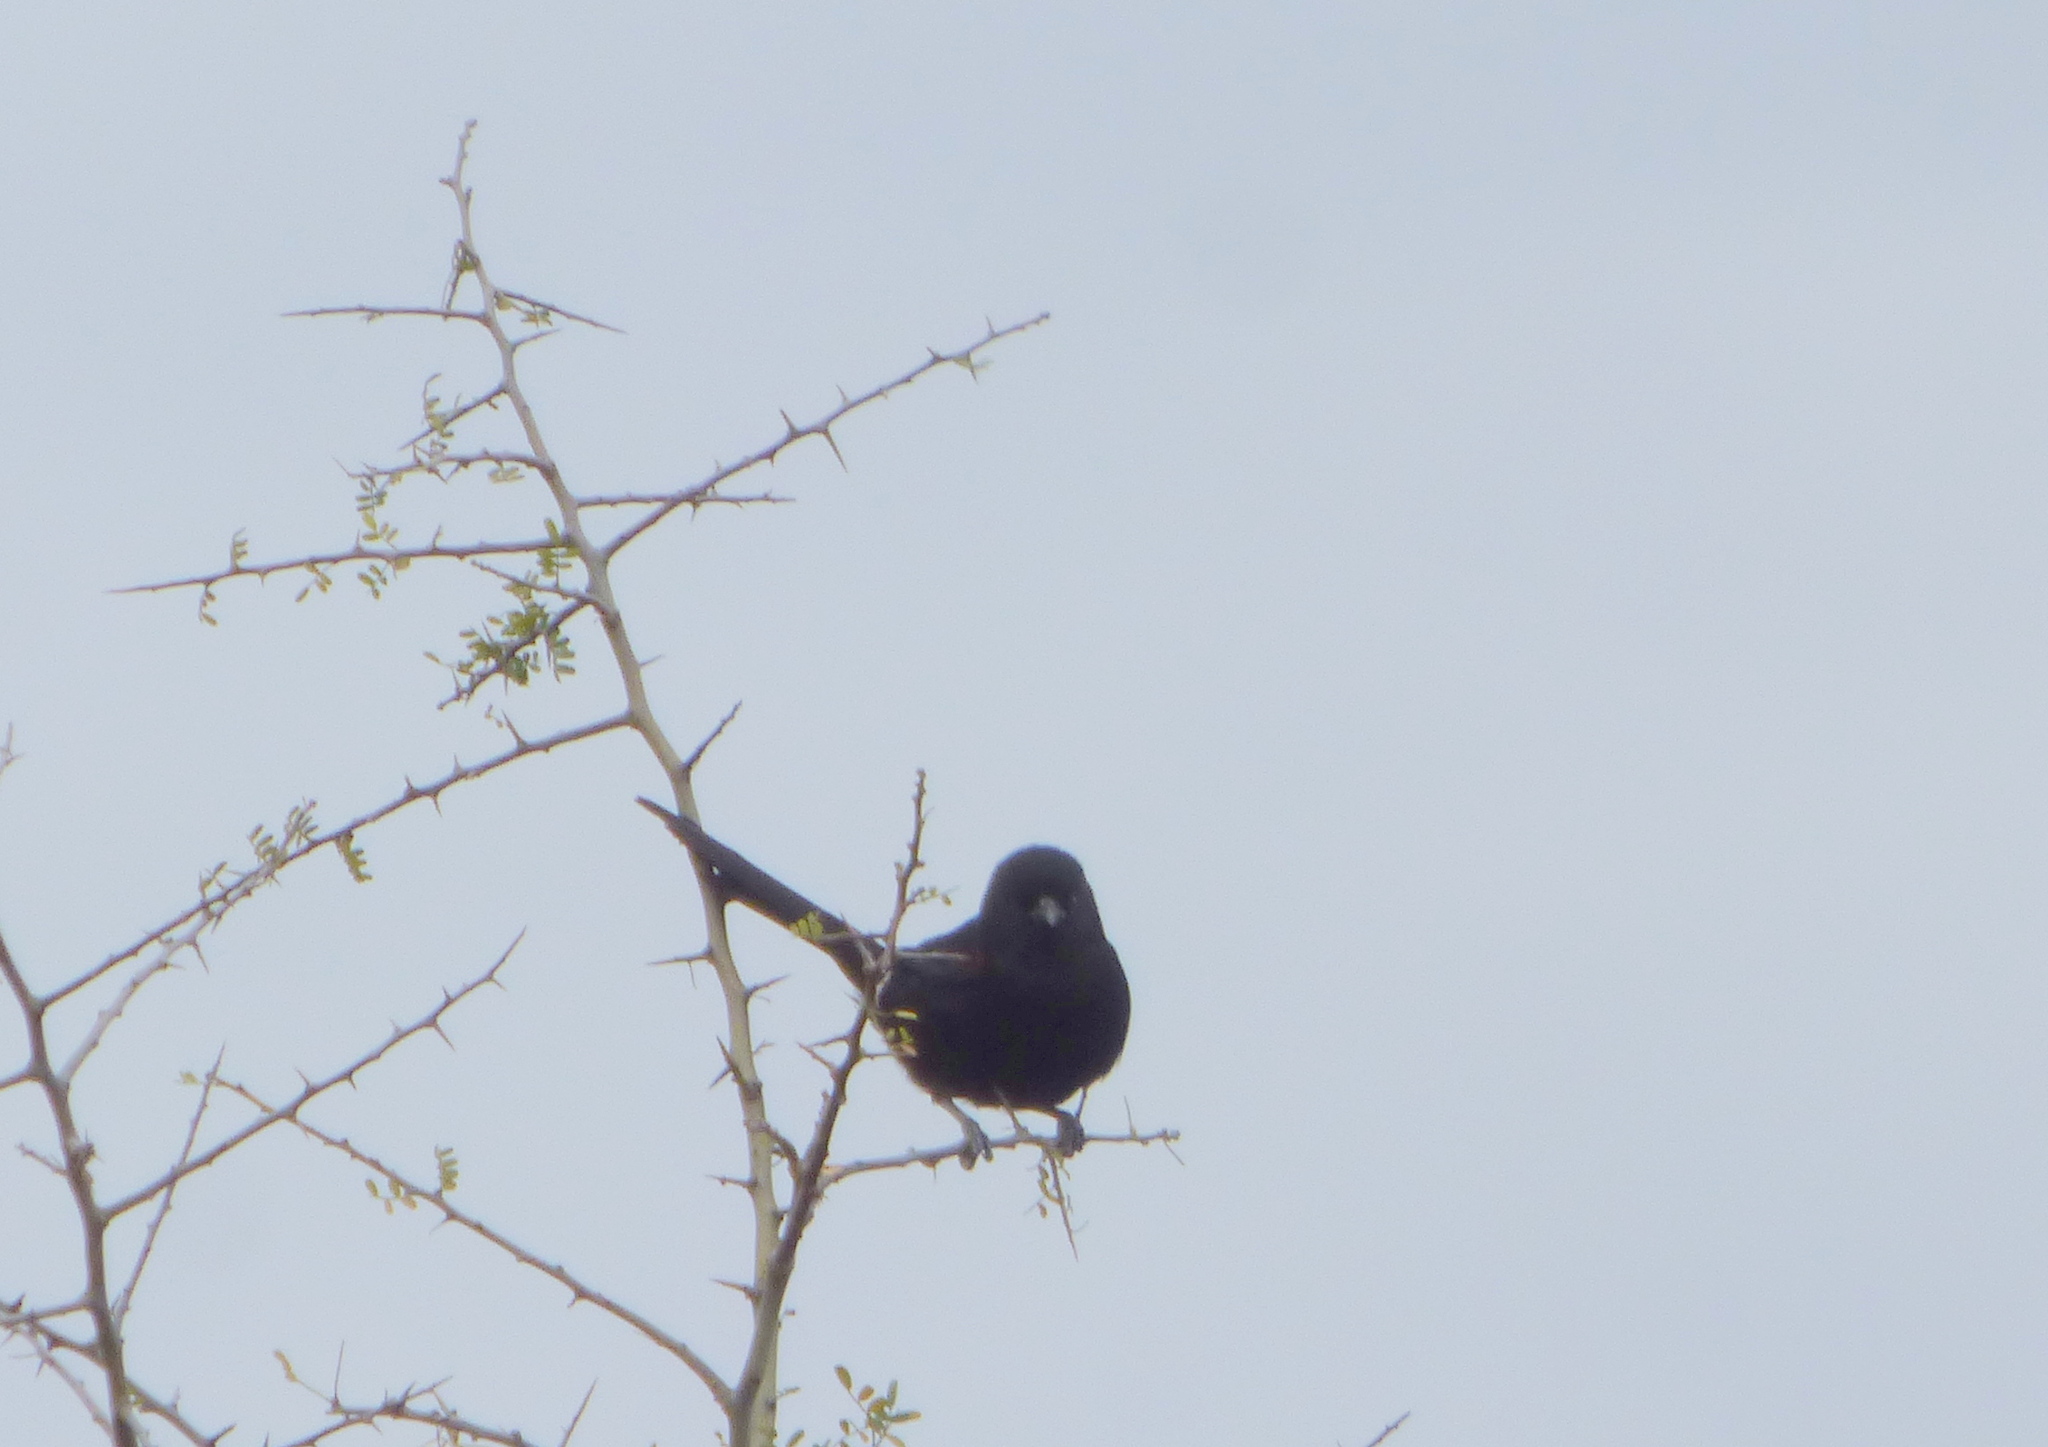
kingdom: Animalia
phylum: Chordata
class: Aves
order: Passeriformes
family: Icteridae
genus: Icterus
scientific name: Icterus cayanensis
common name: Epaulet oriole
